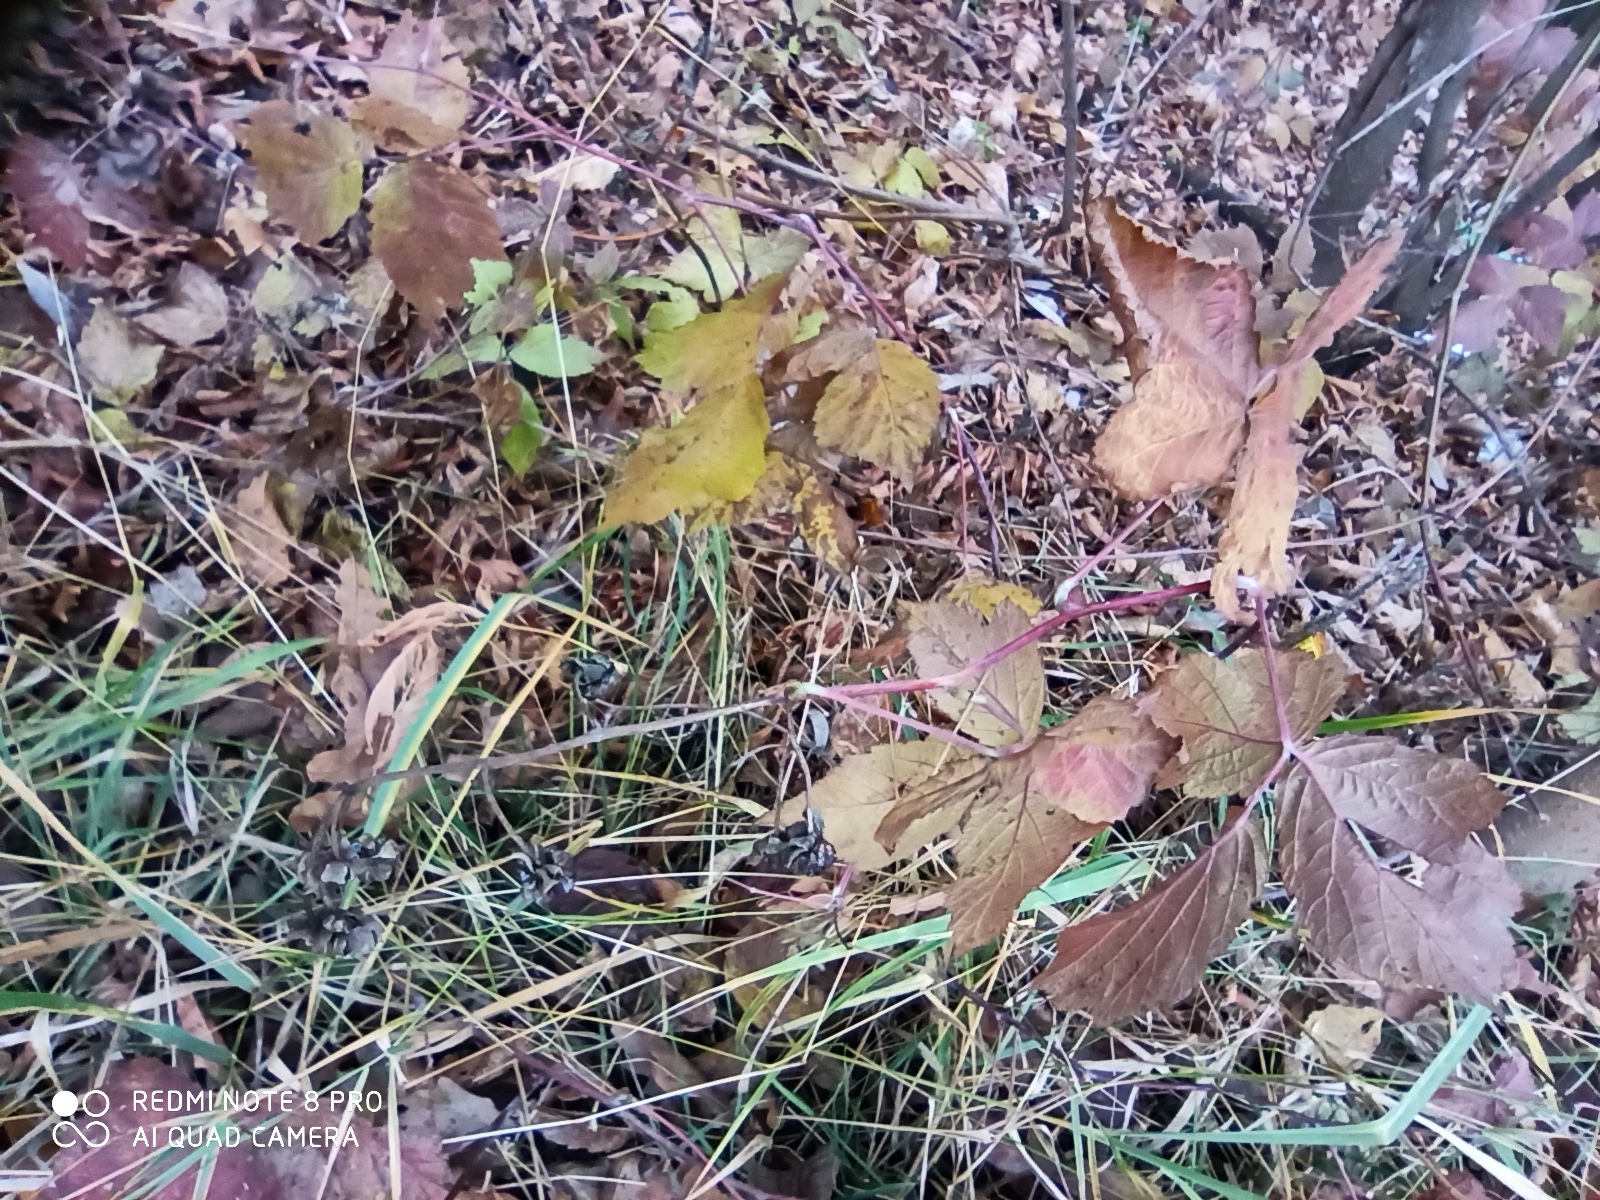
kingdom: Plantae
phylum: Tracheophyta
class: Magnoliopsida
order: Rosales
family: Rosaceae
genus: Rubus
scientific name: Rubus caesius
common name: Dewberry
